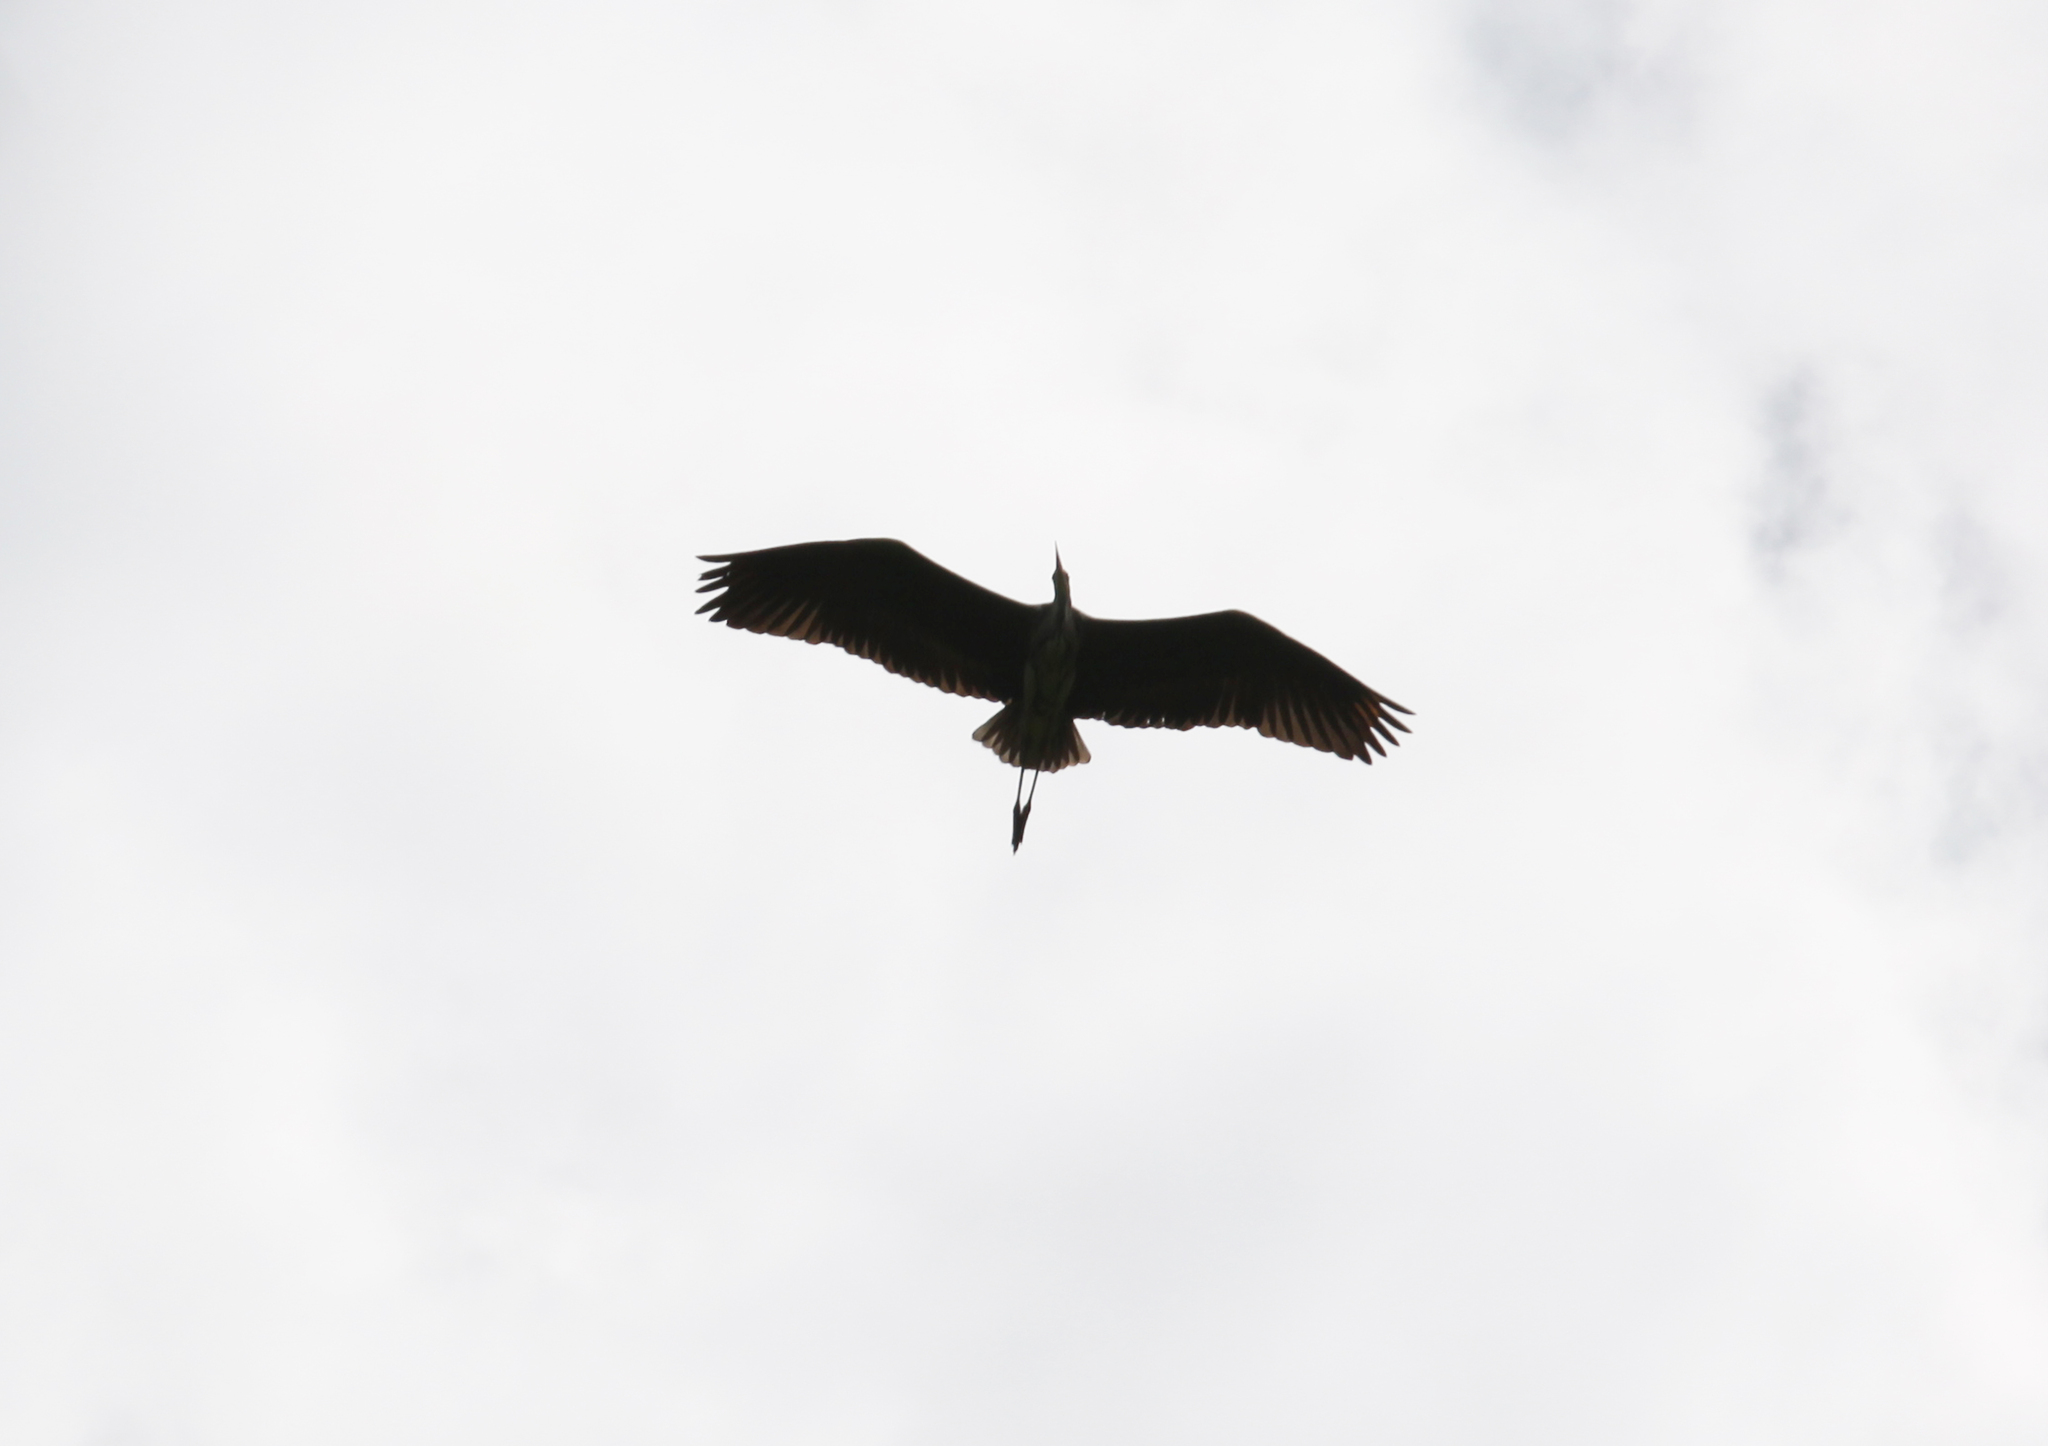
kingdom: Animalia
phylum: Chordata
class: Aves
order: Pelecaniformes
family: Ardeidae
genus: Ardea
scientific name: Ardea cinerea
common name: Grey heron
